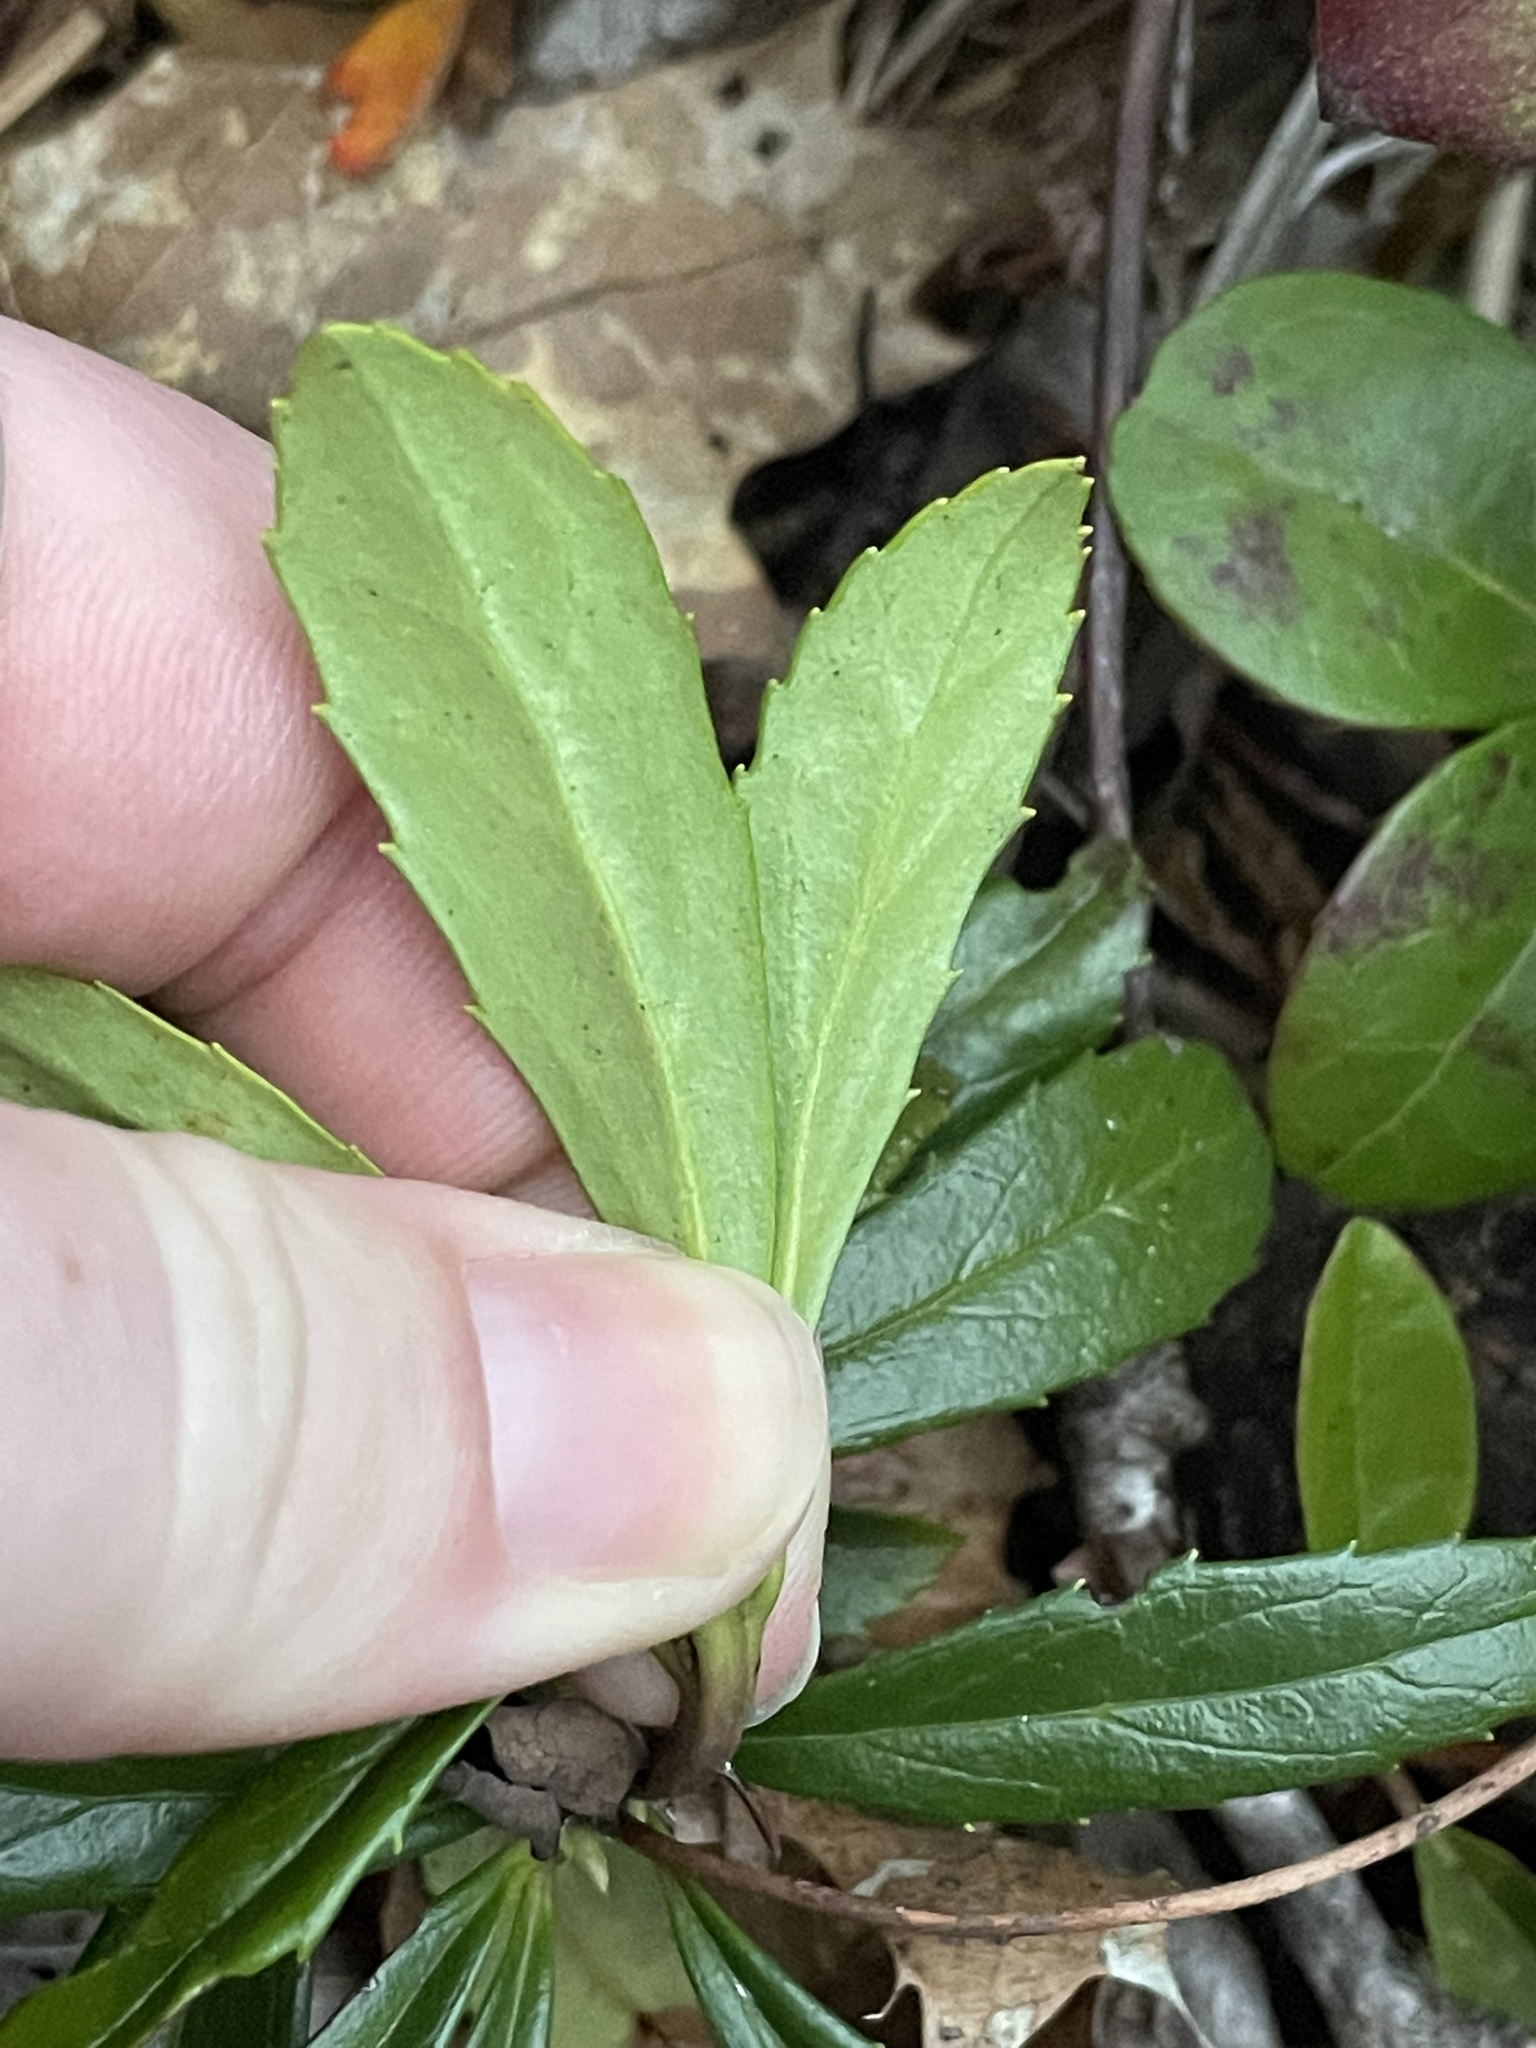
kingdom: Plantae
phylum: Tracheophyta
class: Magnoliopsida
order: Ericales
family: Ericaceae
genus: Chimaphila
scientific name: Chimaphila umbellata
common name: Pipsissewa
